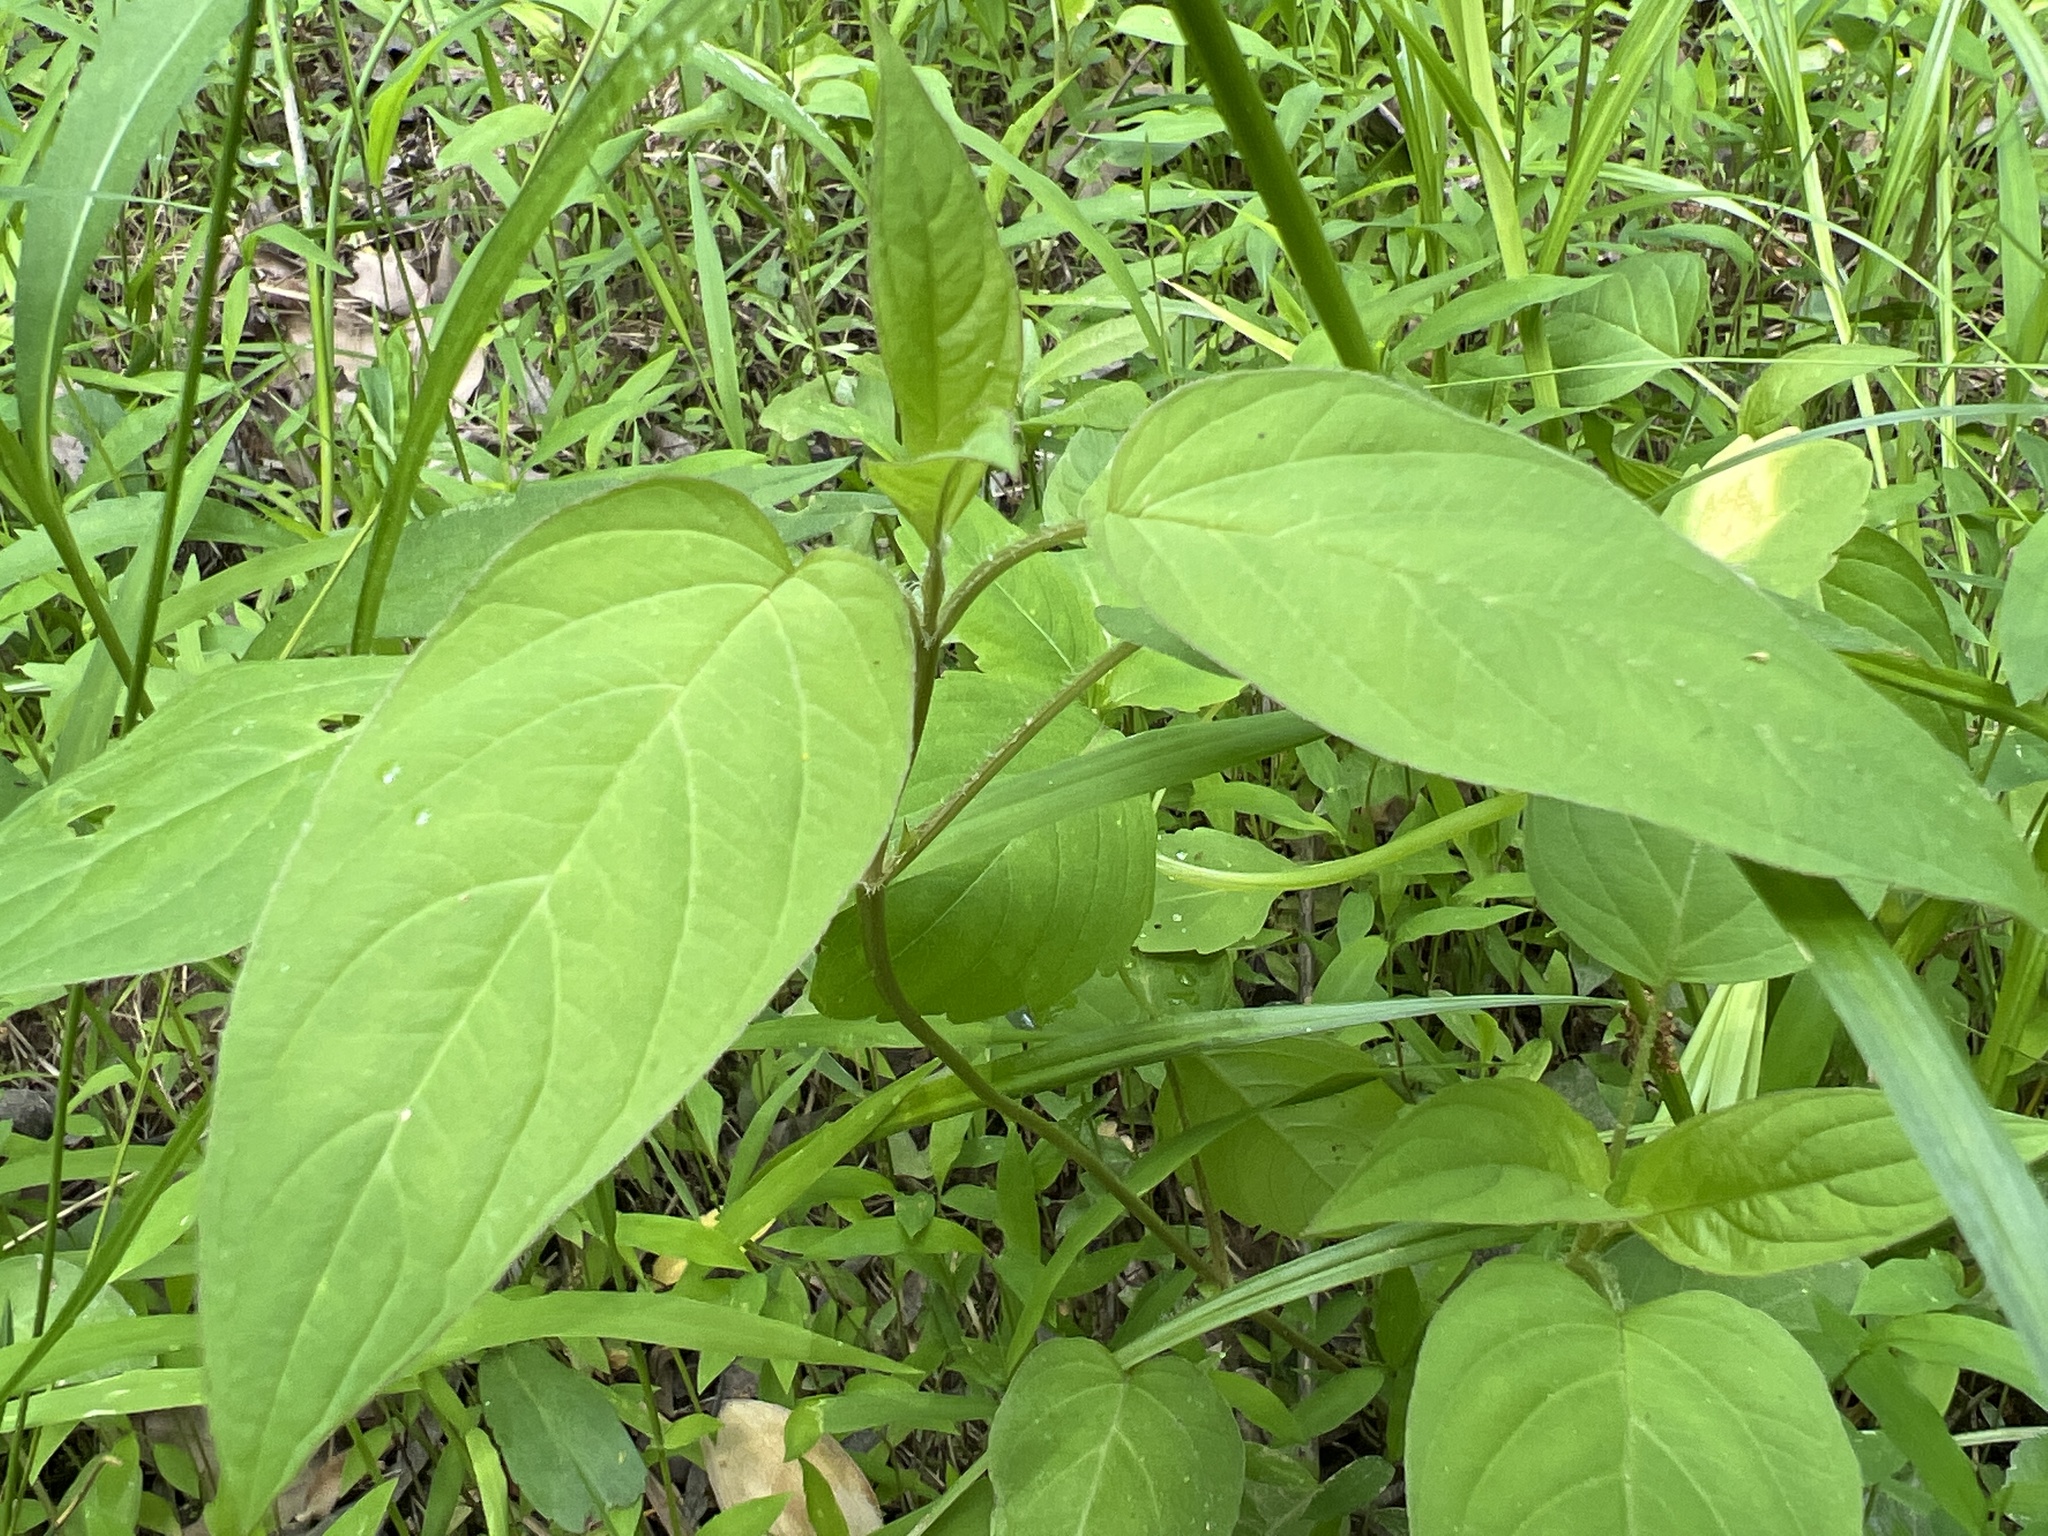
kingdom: Plantae
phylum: Tracheophyta
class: Magnoliopsida
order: Ericales
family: Primulaceae
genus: Lysimachia
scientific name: Lysimachia ciliata
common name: Fringed loosestrife
